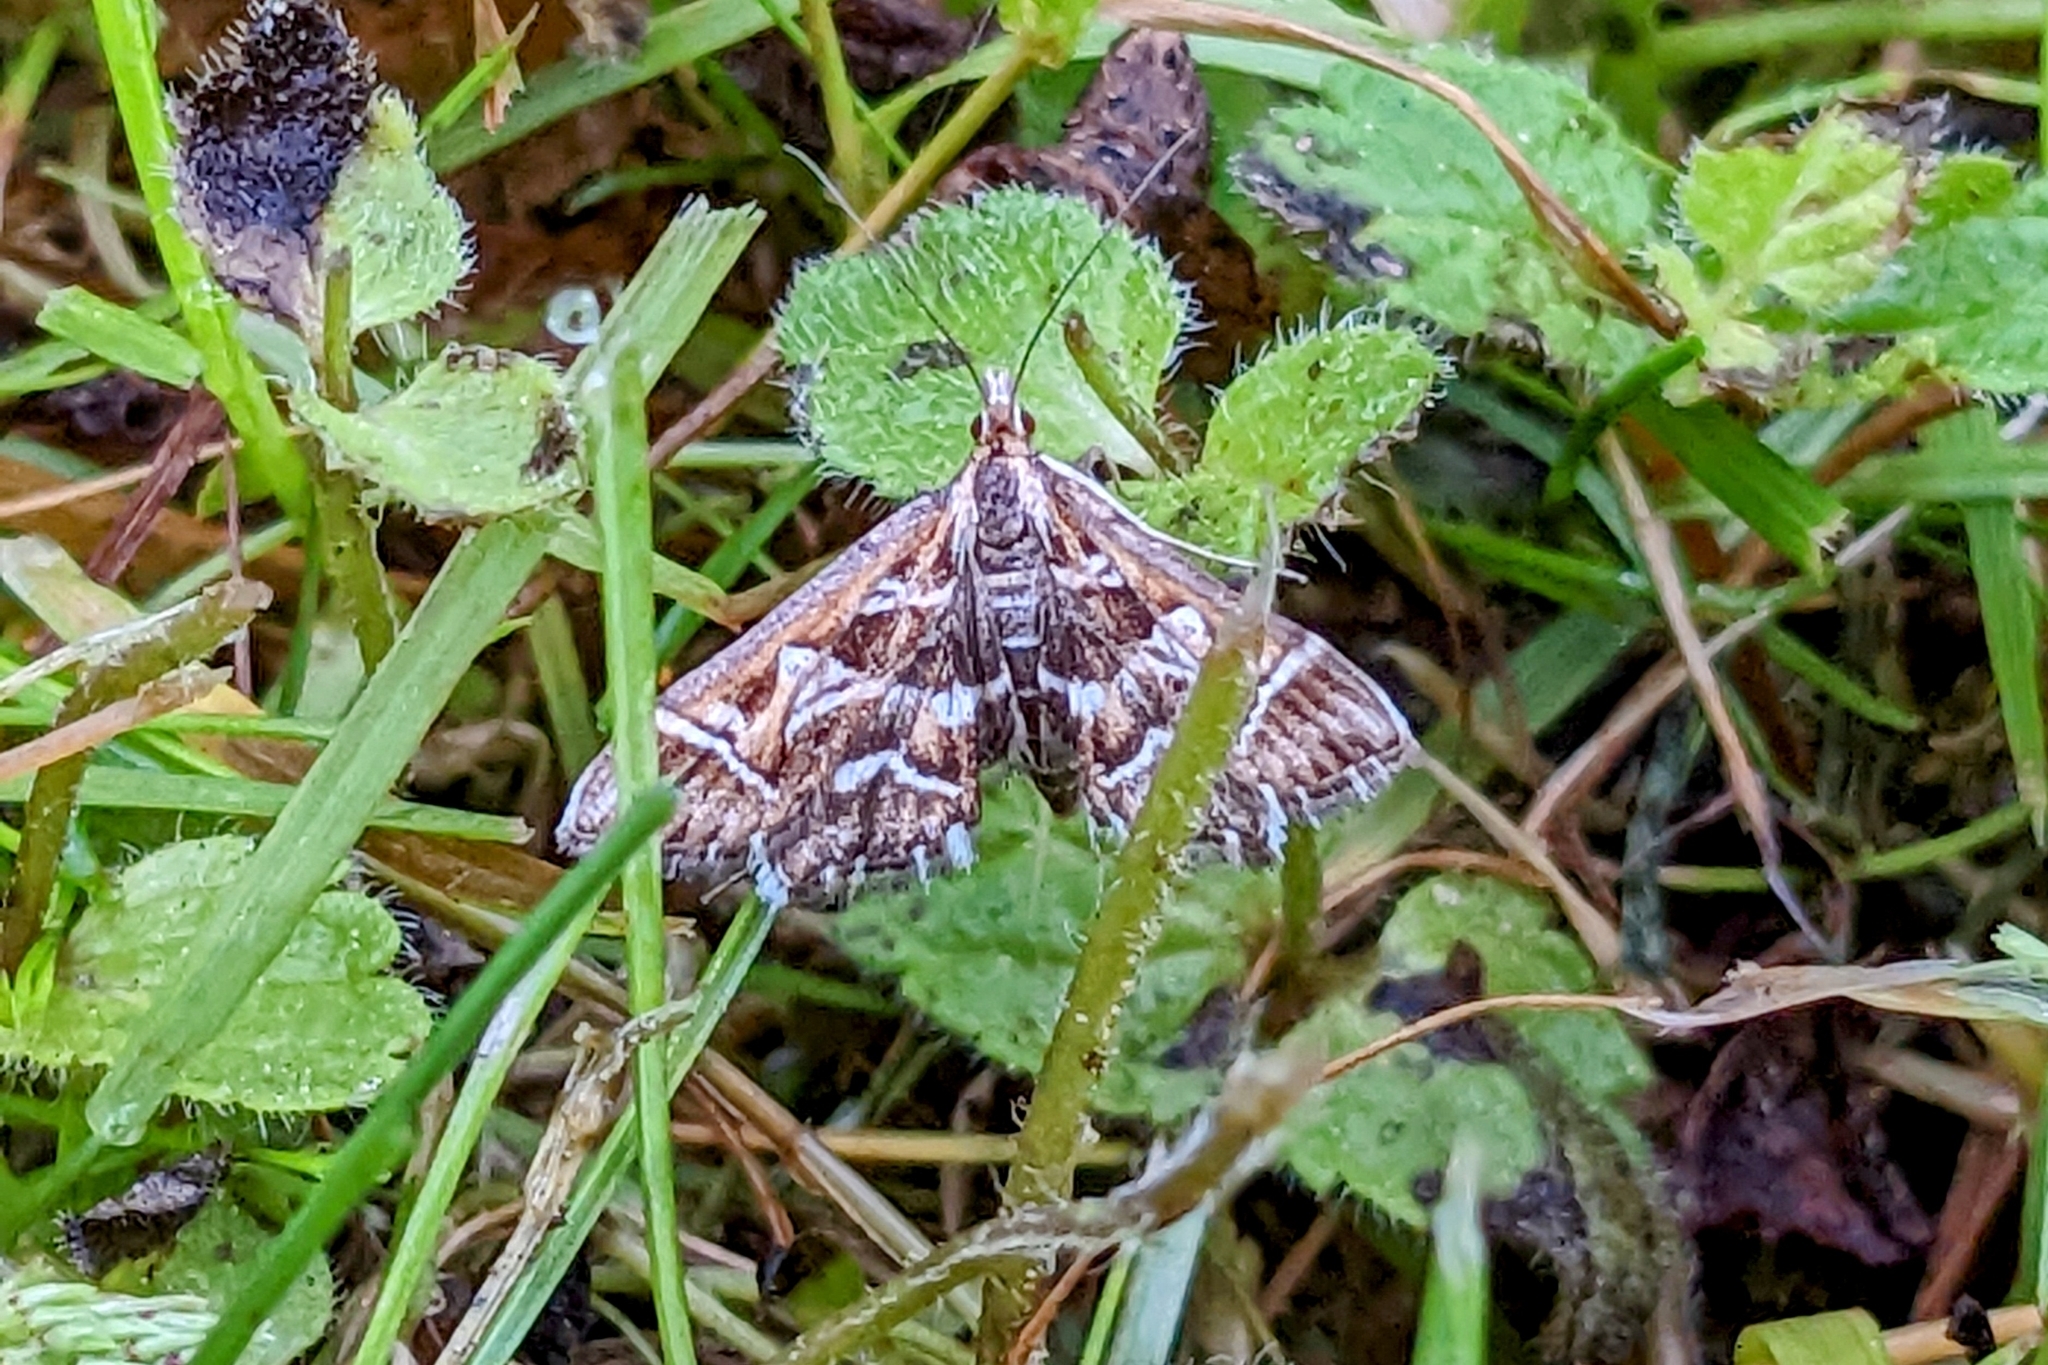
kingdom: Animalia
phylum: Arthropoda
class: Insecta
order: Lepidoptera
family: Crambidae
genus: Diasemia
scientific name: Diasemia reticularis
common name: Lettered china-mark
